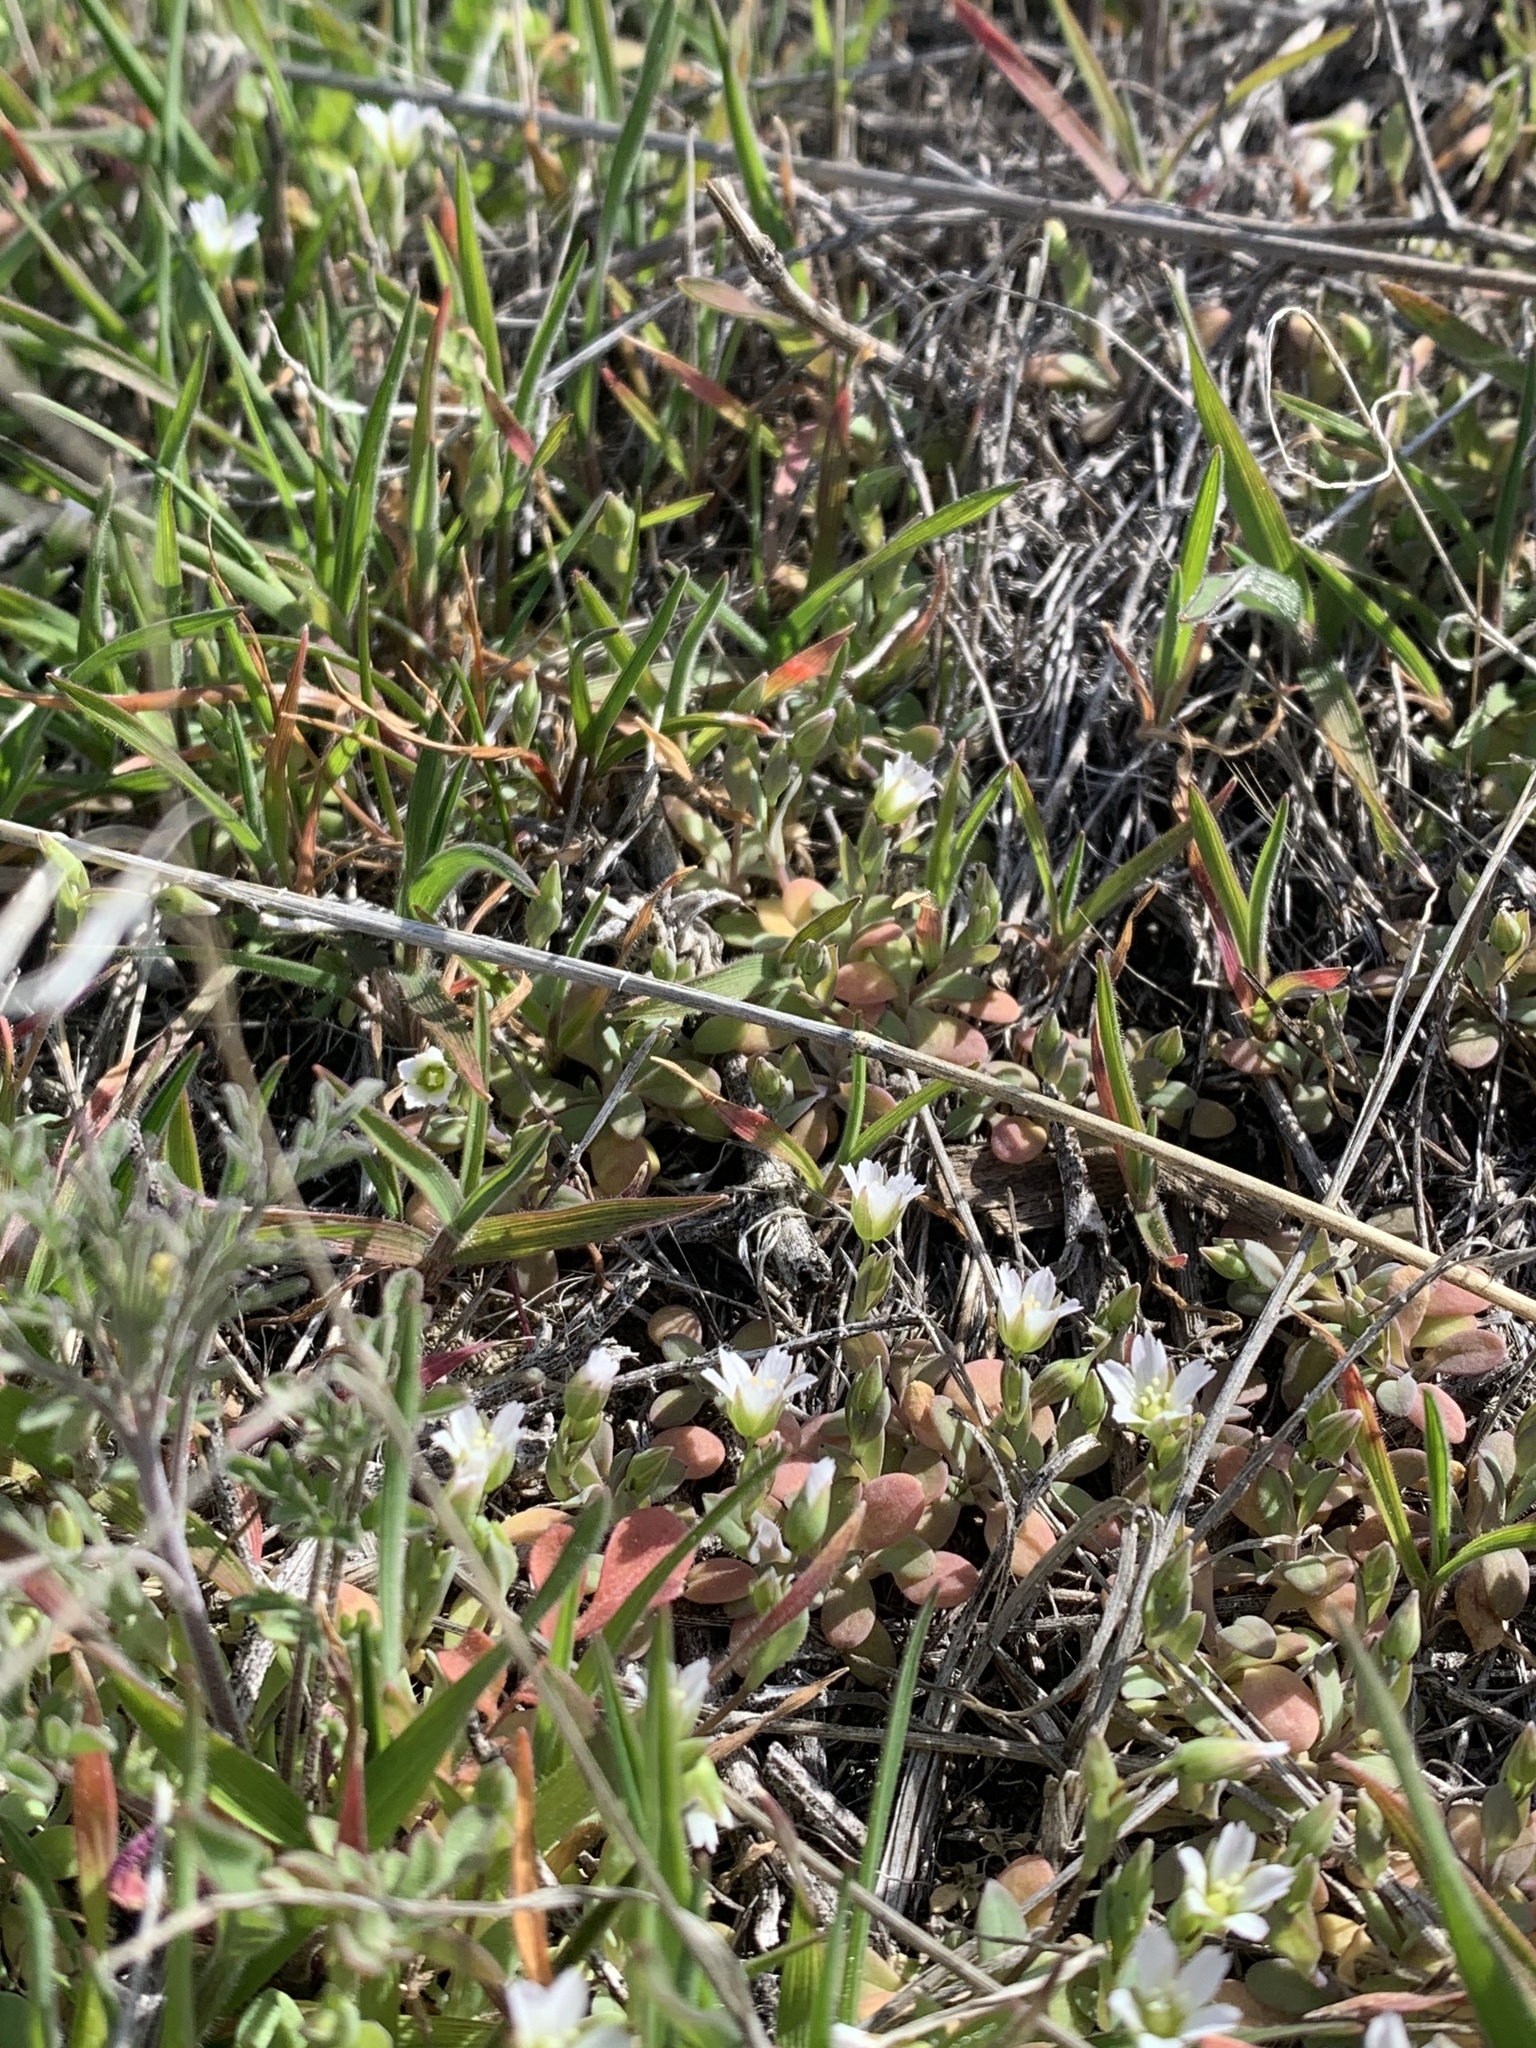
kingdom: Plantae
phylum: Tracheophyta
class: Magnoliopsida
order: Caryophyllales
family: Caryophyllaceae
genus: Holosteum
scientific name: Holosteum umbellatum
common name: Jagged chickweed
